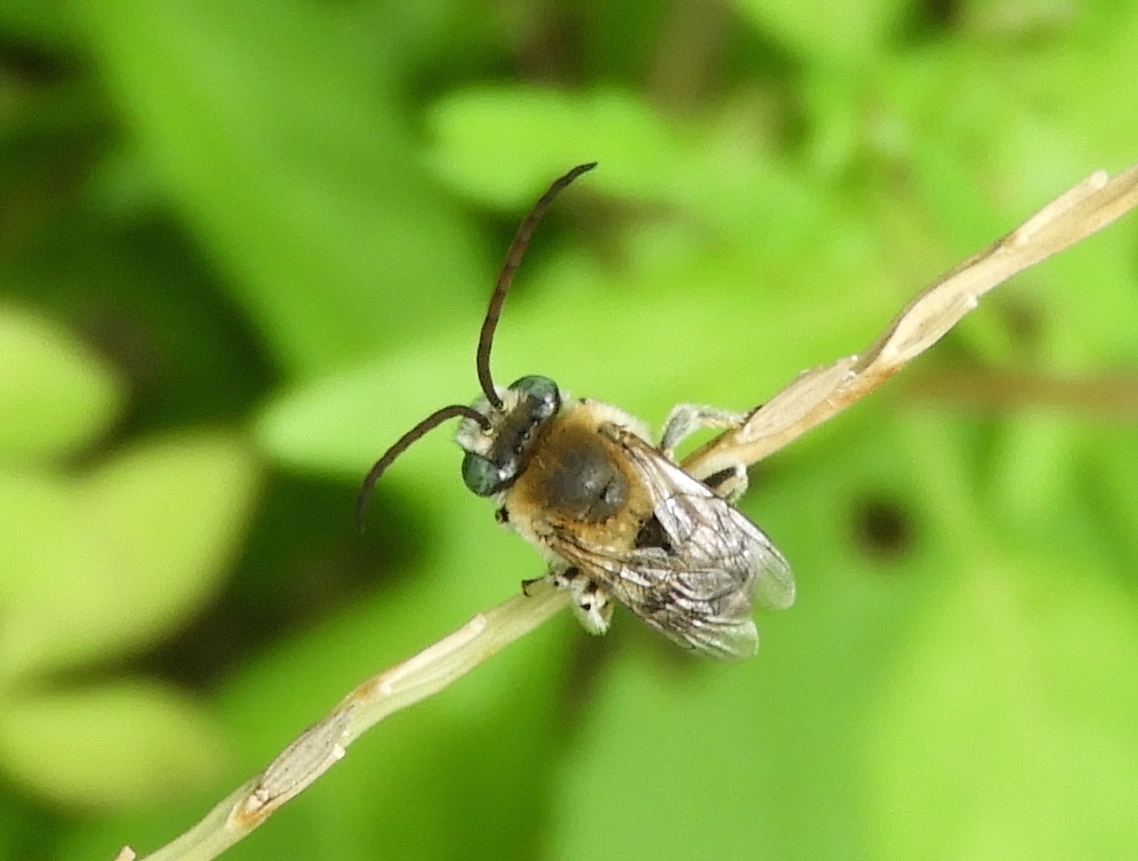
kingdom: Animalia
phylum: Arthropoda
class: Insecta
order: Hymenoptera
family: Apidae
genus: Apidae
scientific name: Apidae
